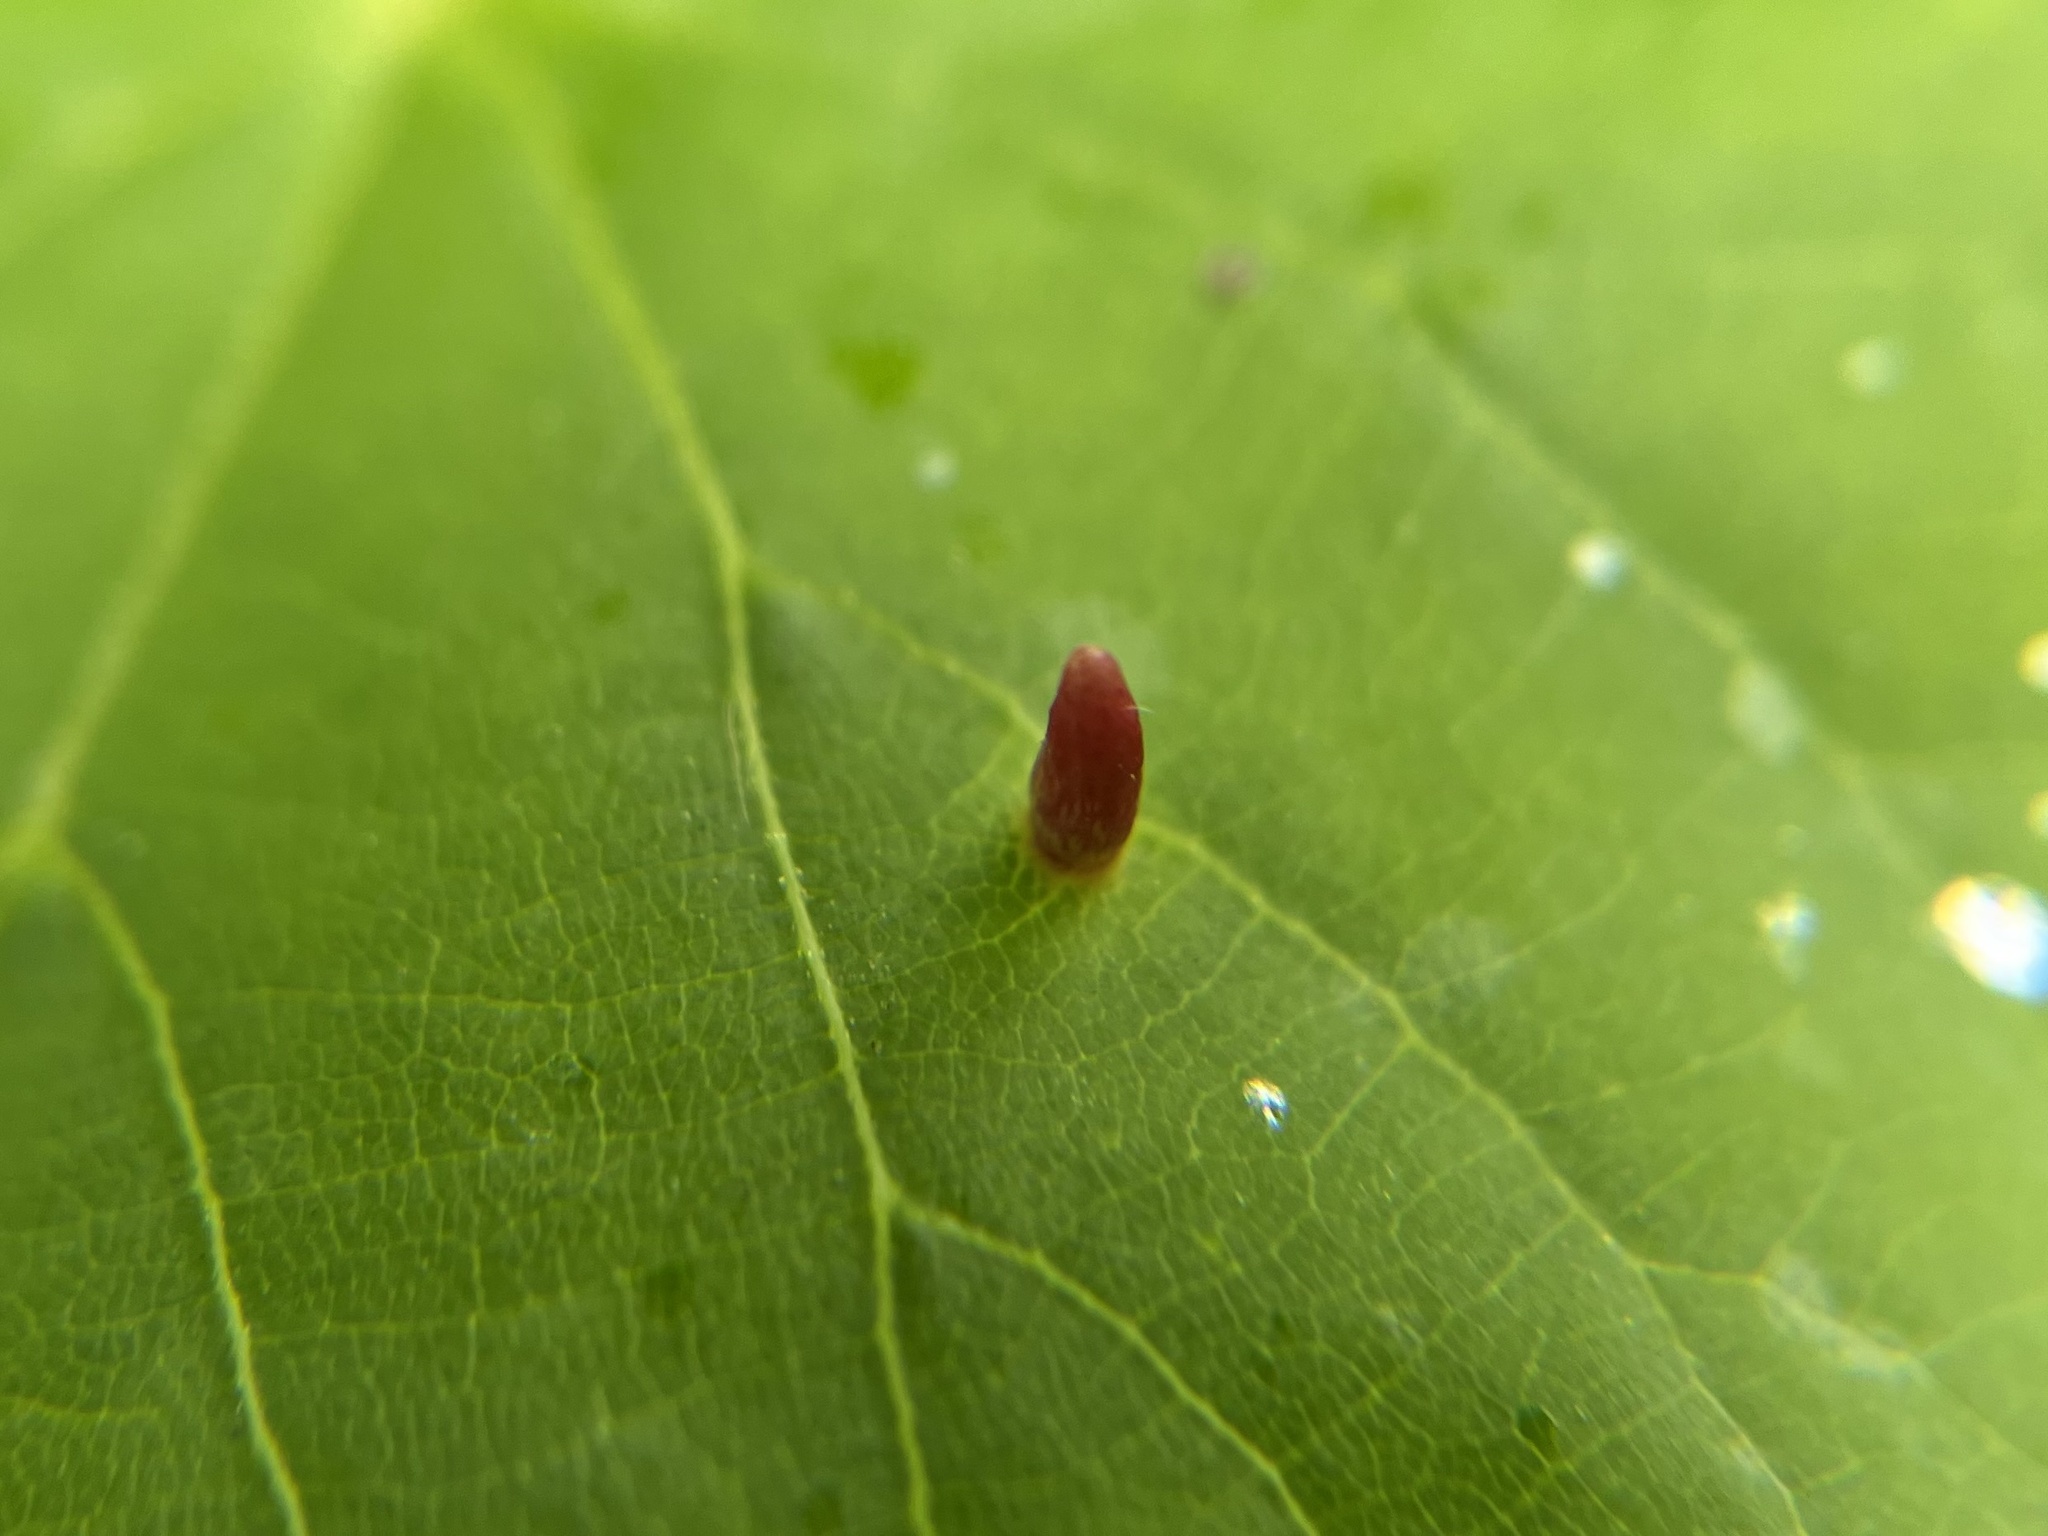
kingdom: Animalia
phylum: Arthropoda
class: Arachnida
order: Trombidiformes
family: Eriophyidae
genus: Eriophyes
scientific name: Eriophyes tiliae
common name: Red nail gall mite
